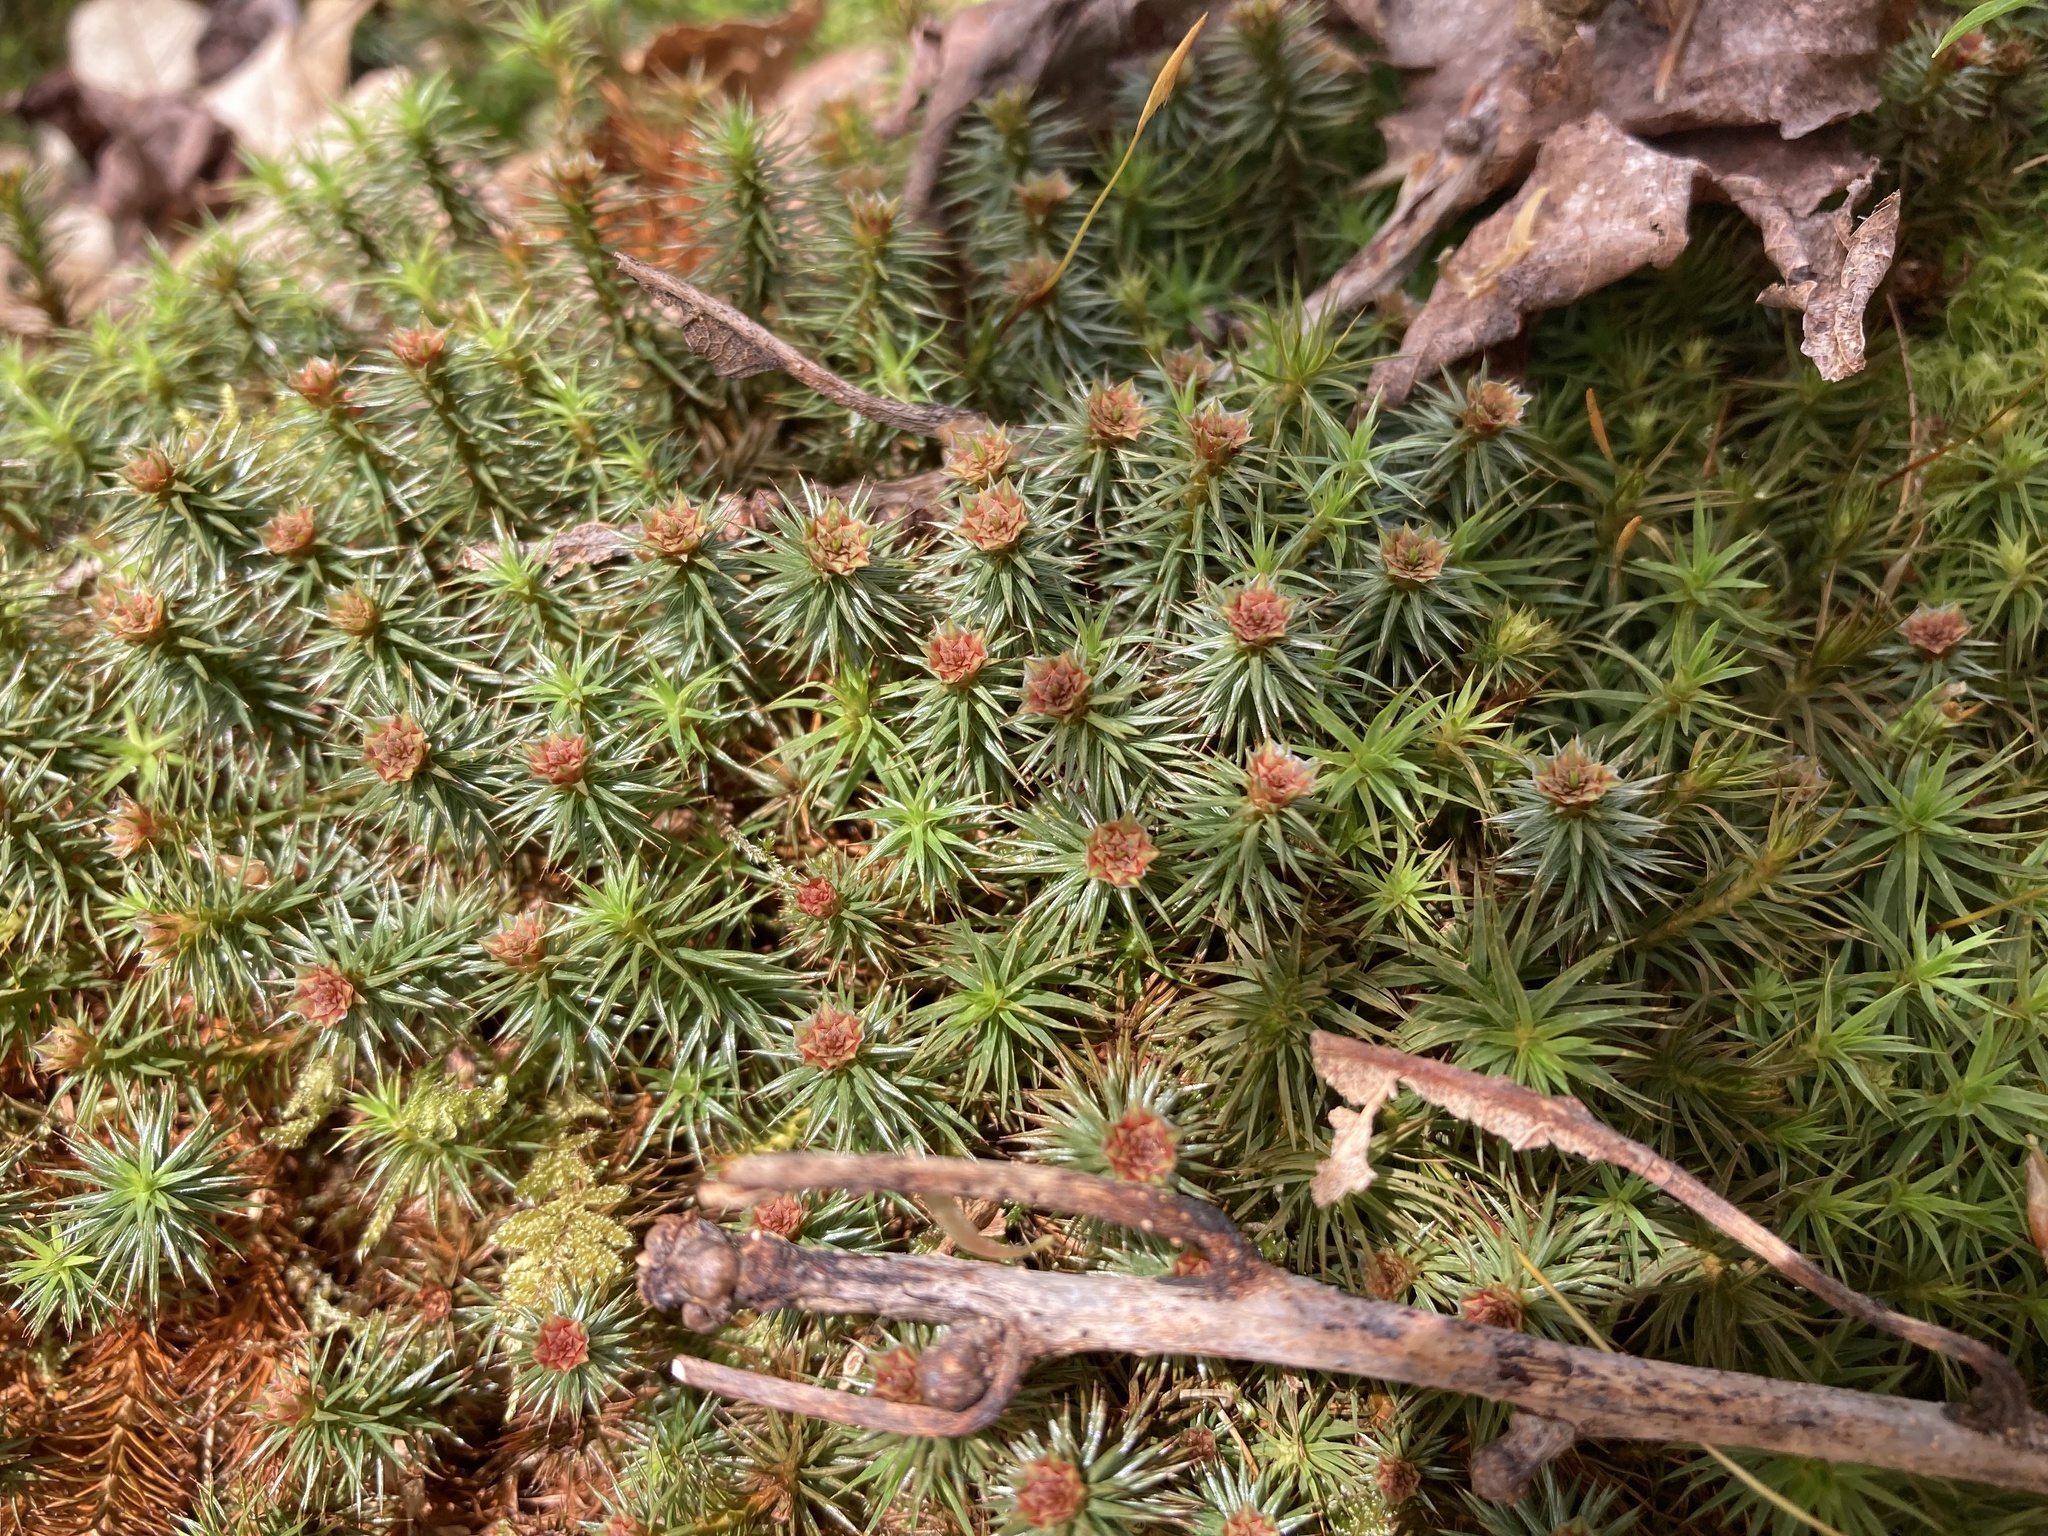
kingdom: Plantae
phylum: Bryophyta
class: Polytrichopsida
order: Polytrichales
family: Polytrichaceae
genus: Polytrichum
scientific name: Polytrichum juniperinum
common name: Juniper haircap moss
